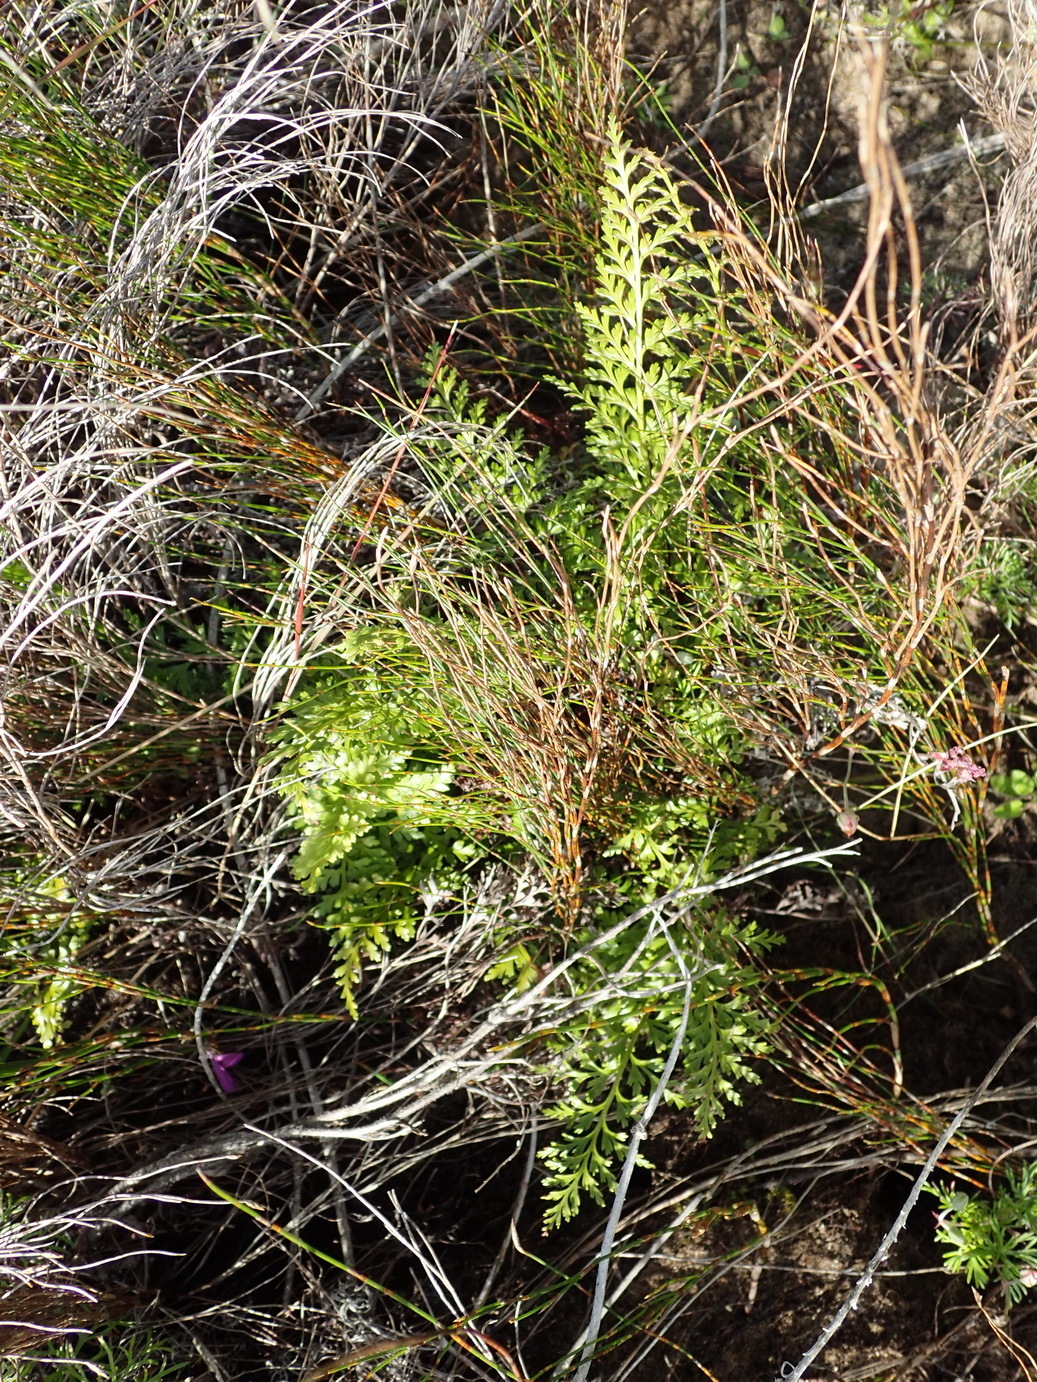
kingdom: Plantae
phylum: Tracheophyta
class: Polypodiopsida
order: Polypodiales
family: Aspleniaceae
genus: Asplenium
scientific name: Asplenium adiantum-nigrum
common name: Black spleenwort
